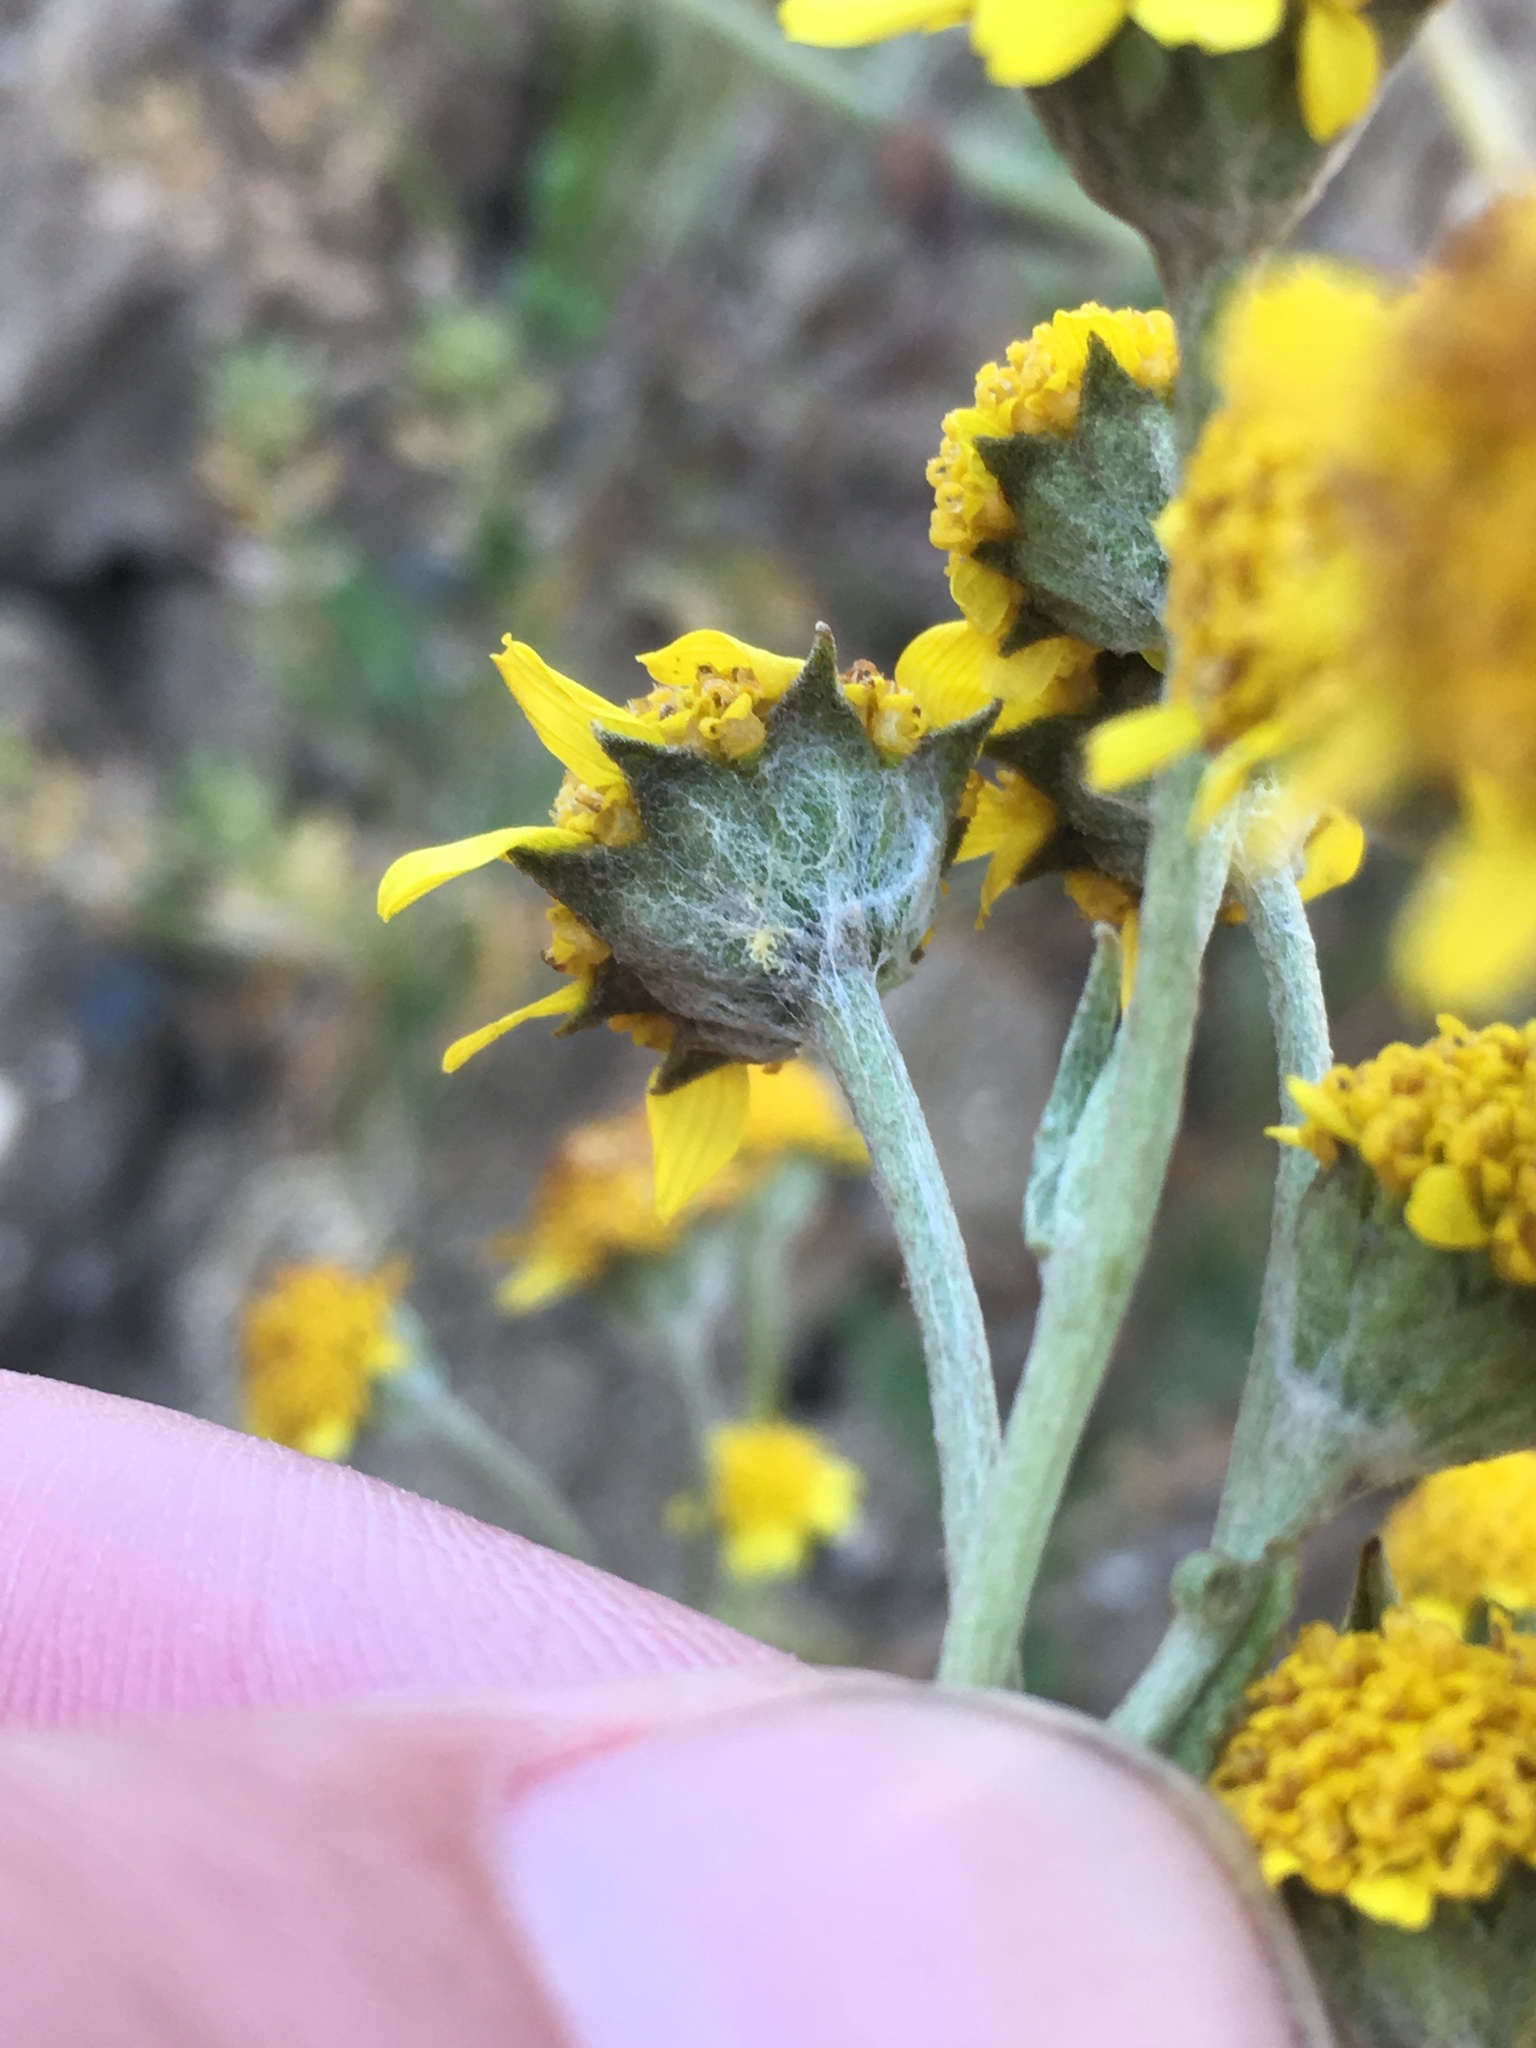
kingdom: Plantae
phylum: Tracheophyta
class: Magnoliopsida
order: Asterales
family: Asteraceae
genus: Monolopia
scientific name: Monolopia stricta
